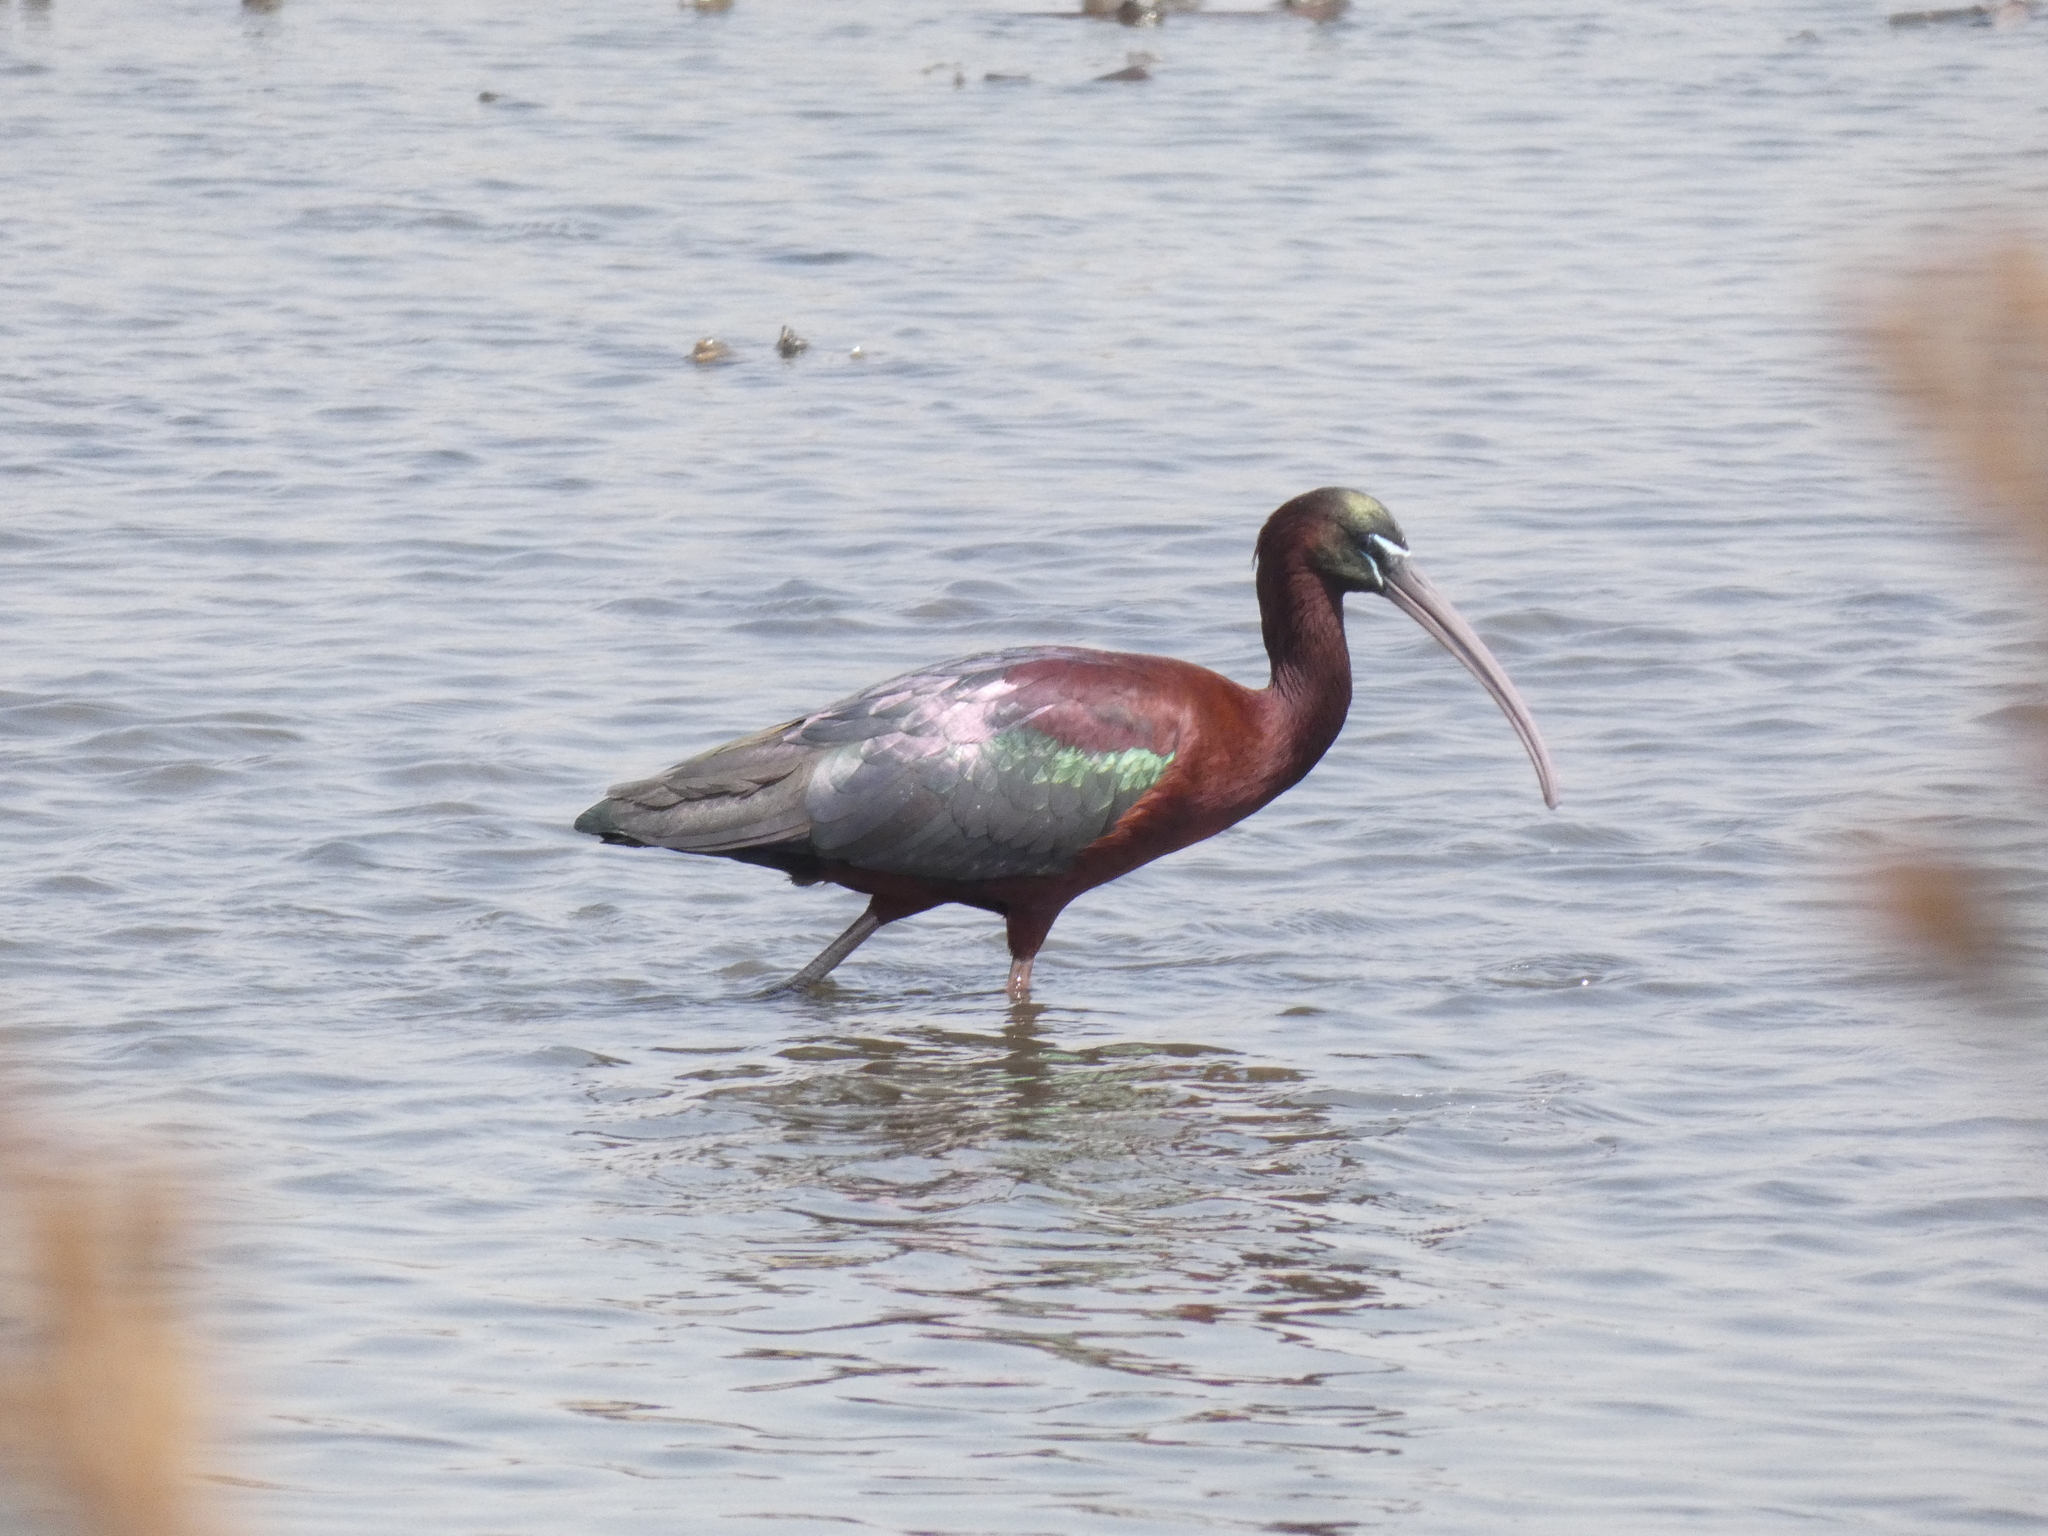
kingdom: Animalia
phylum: Chordata
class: Aves
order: Pelecaniformes
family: Threskiornithidae
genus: Plegadis
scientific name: Plegadis falcinellus
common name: Glossy ibis
